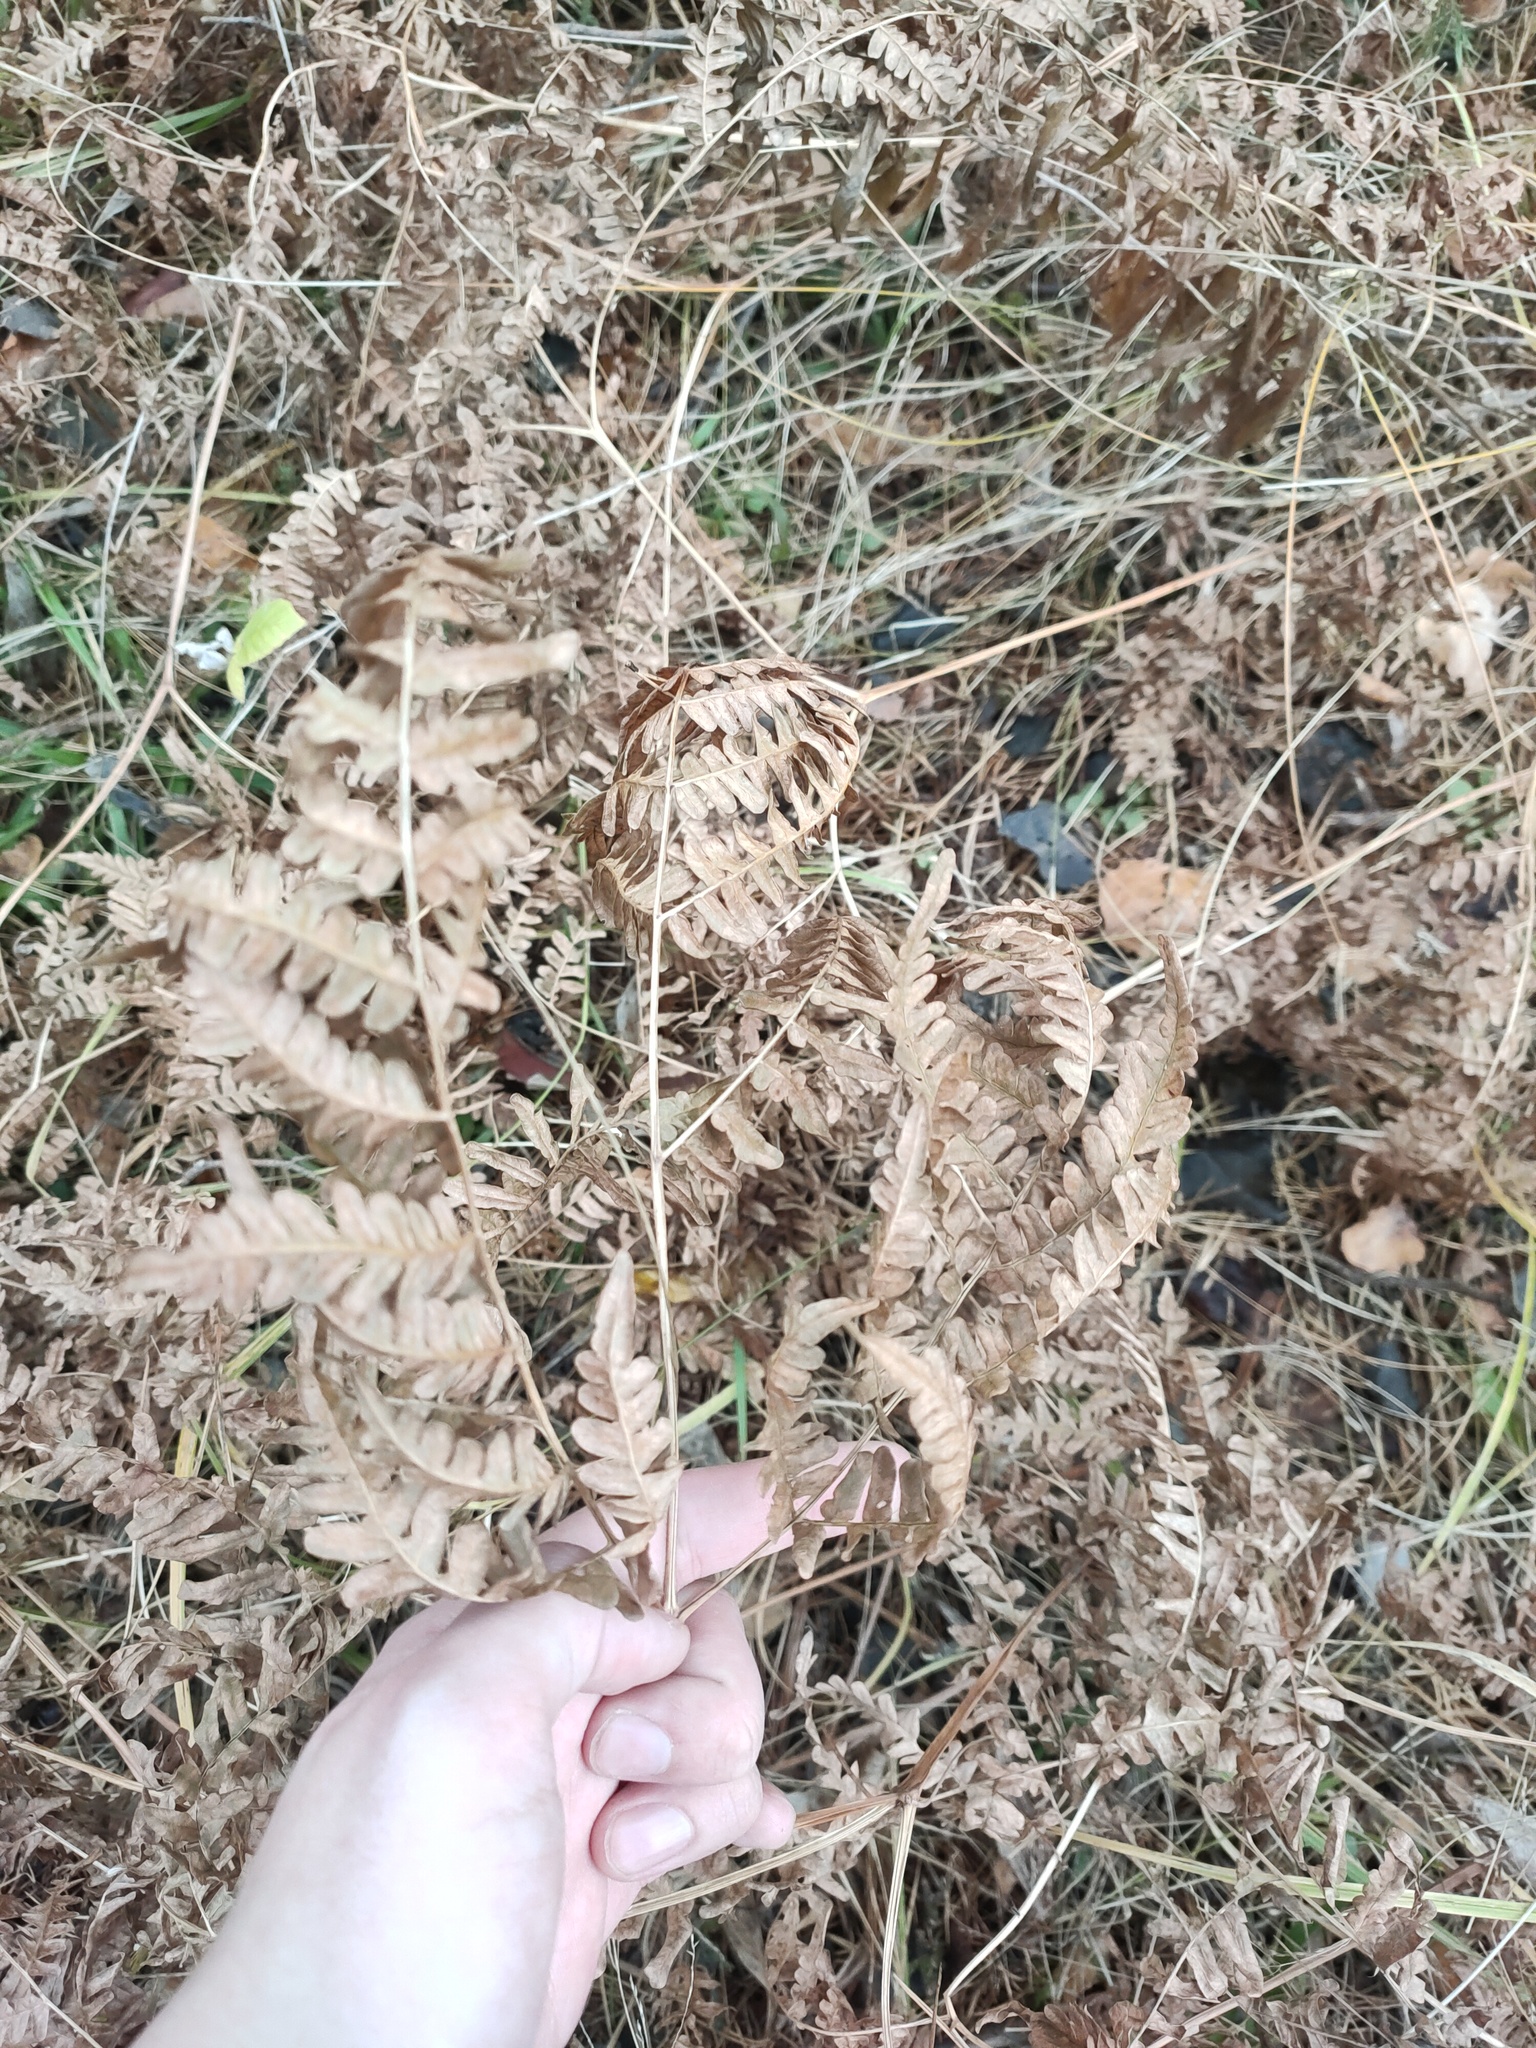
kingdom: Plantae
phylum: Tracheophyta
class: Polypodiopsida
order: Polypodiales
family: Dennstaedtiaceae
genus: Pteridium
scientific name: Pteridium aquilinum
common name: Bracken
